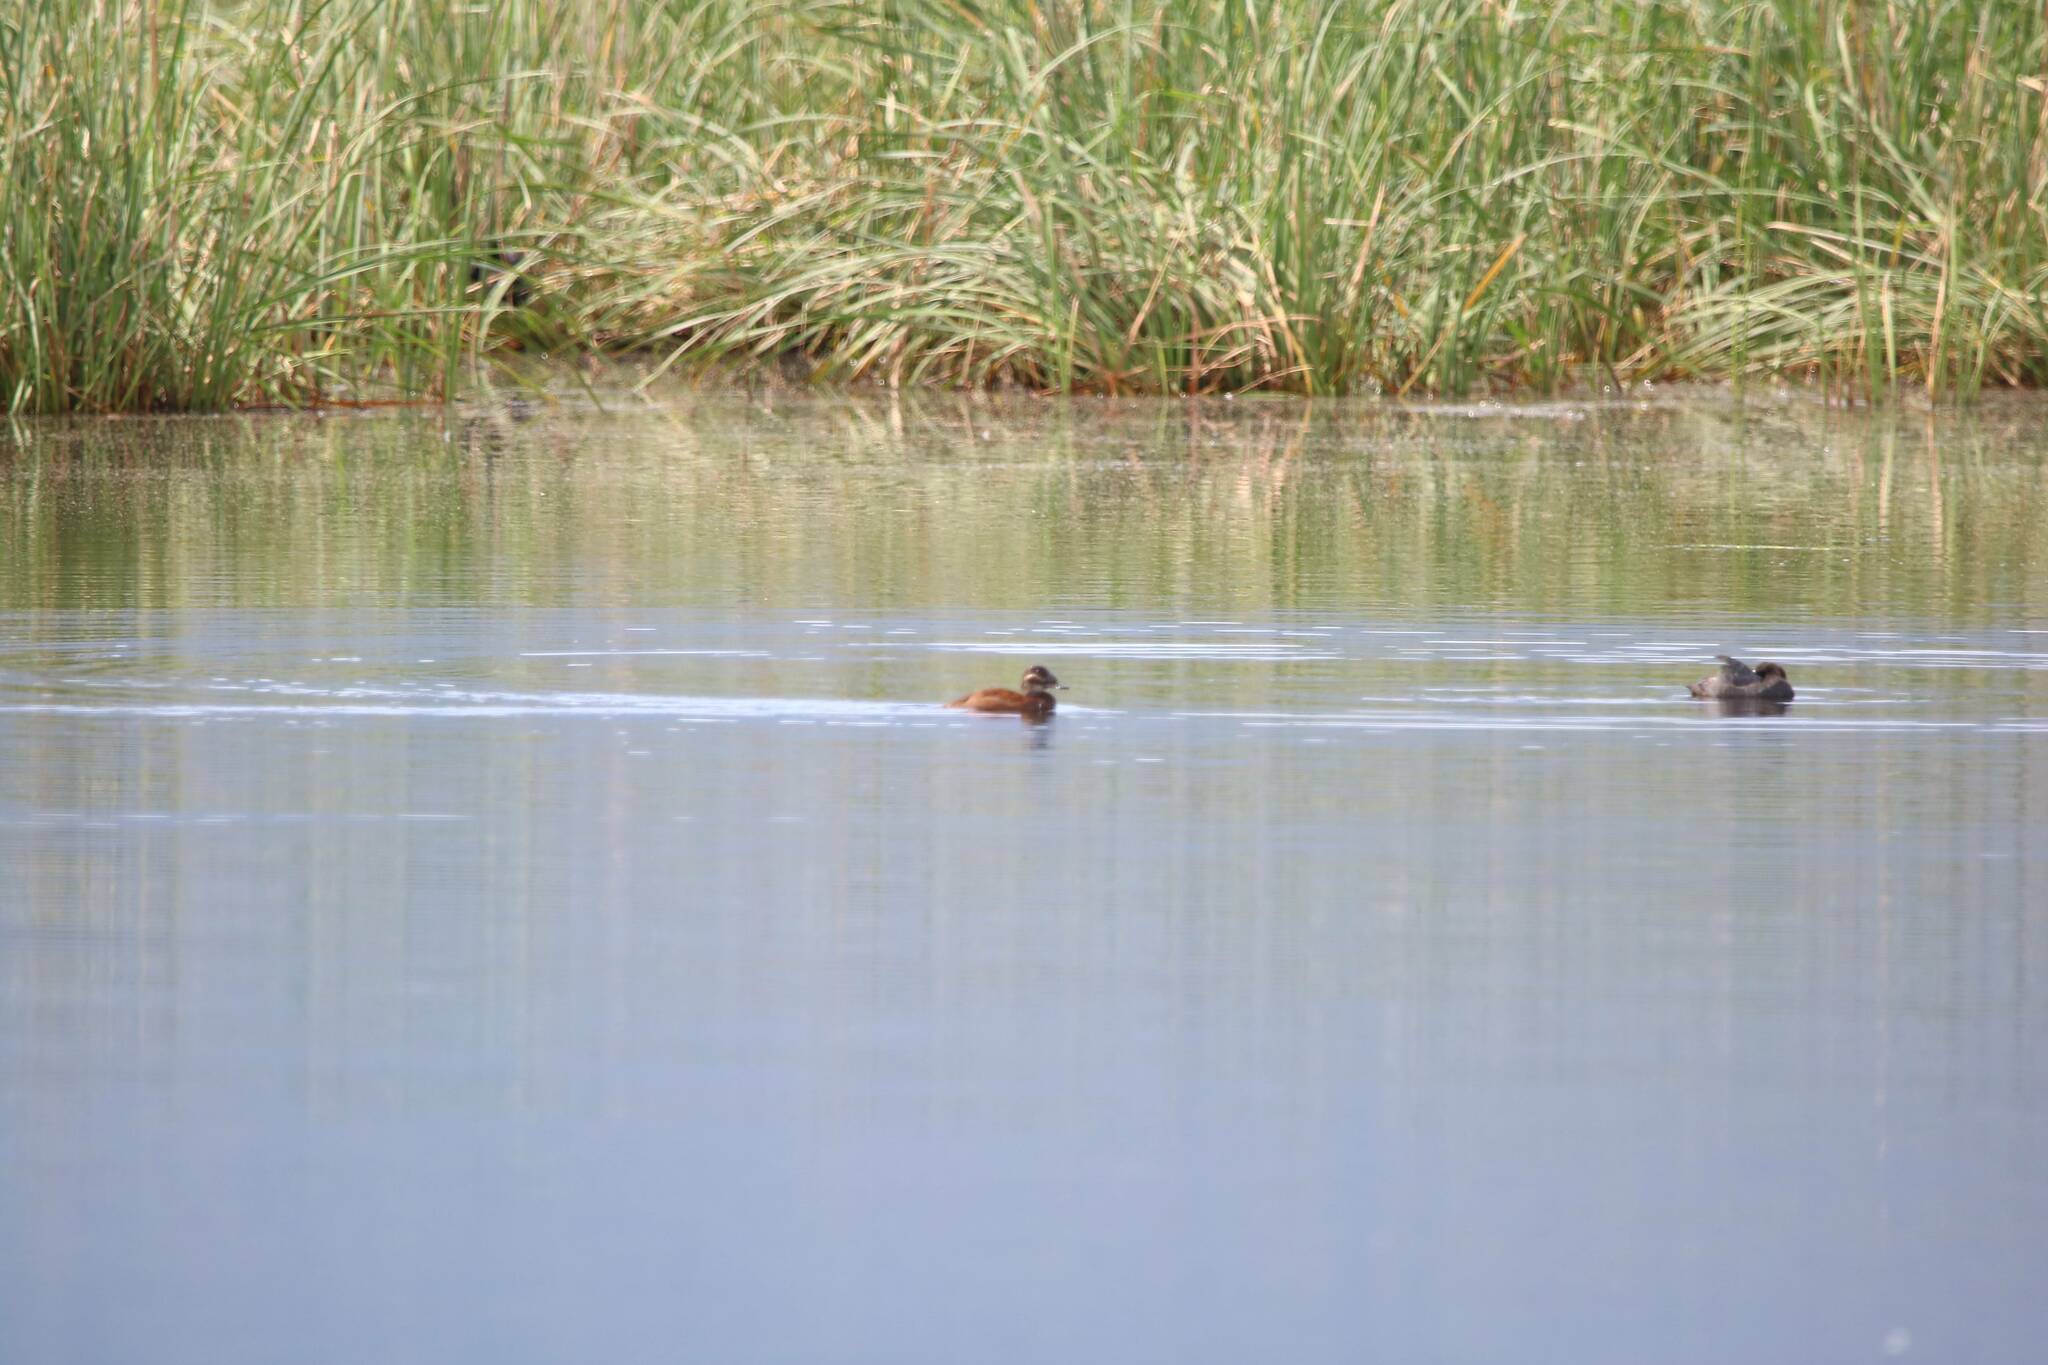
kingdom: Animalia
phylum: Chordata
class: Aves
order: Anseriformes
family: Anatidae
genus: Oxyura
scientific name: Oxyura leucocephala
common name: White-headed duck
